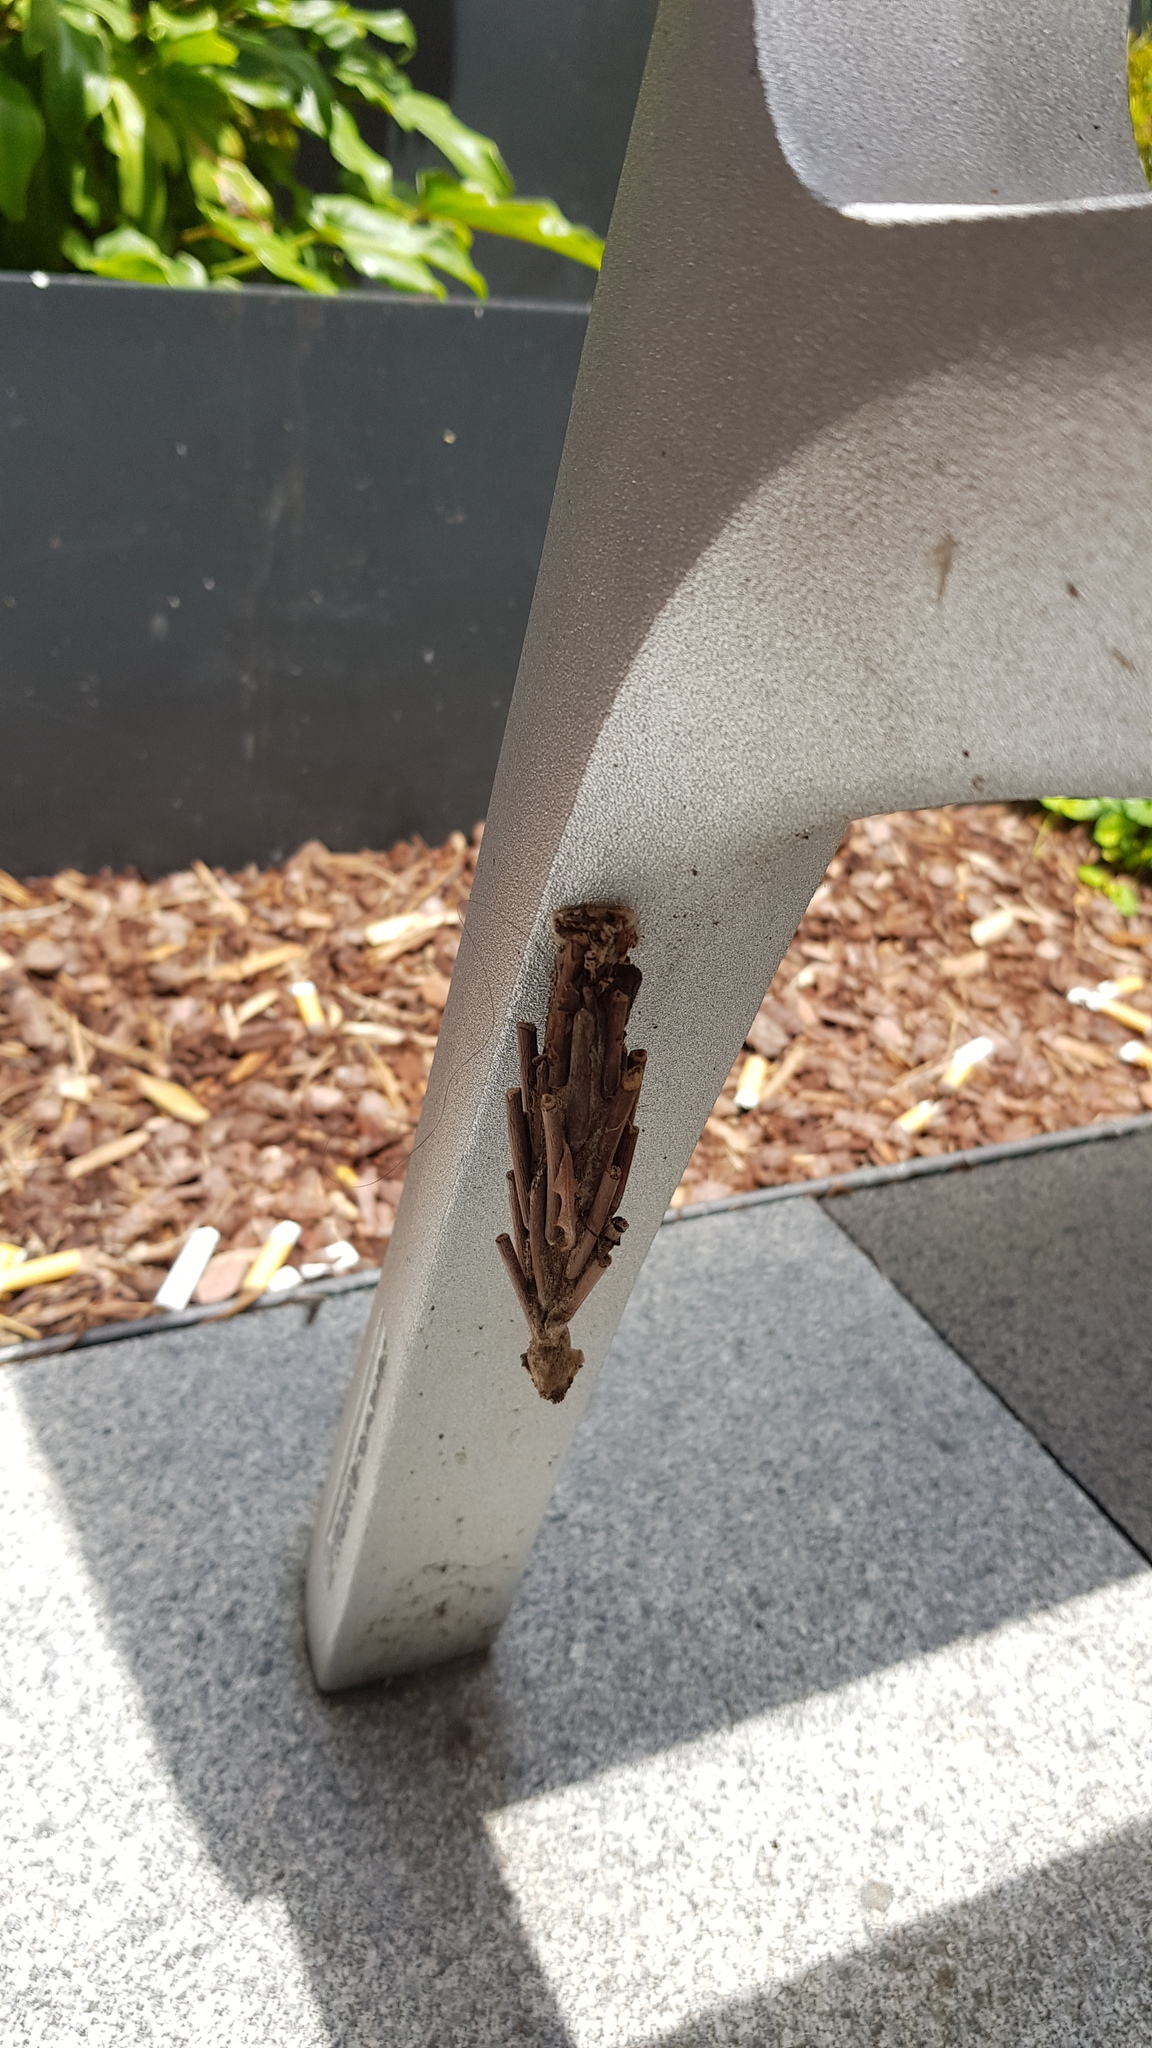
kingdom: Animalia
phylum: Arthropoda
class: Insecta
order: Lepidoptera
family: Psychidae
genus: Metura
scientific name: Metura elongatus
